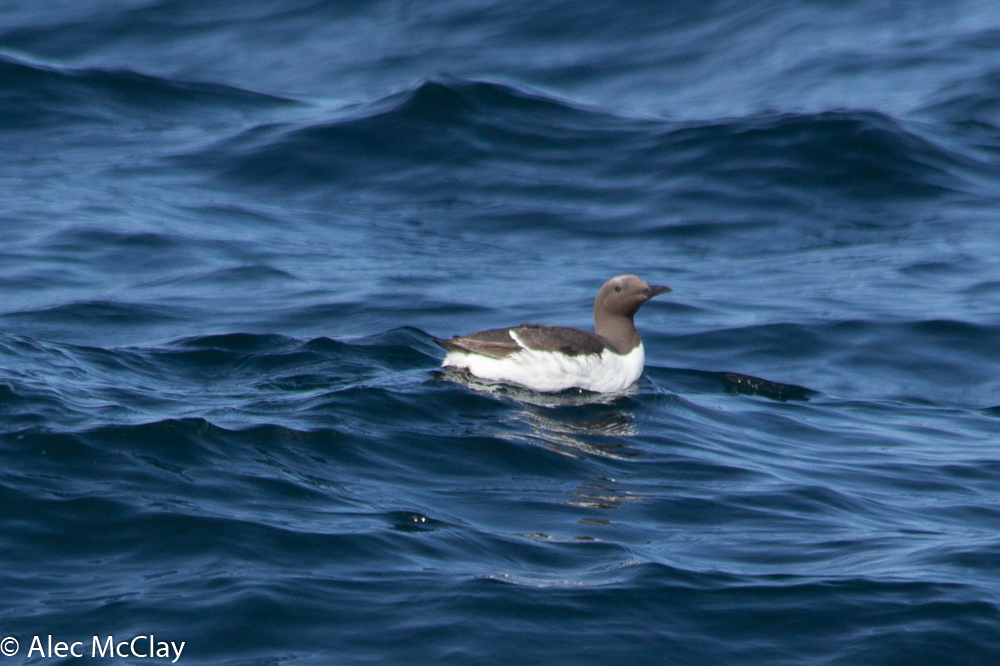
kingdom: Animalia
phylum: Chordata
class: Aves
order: Charadriiformes
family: Alcidae
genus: Uria
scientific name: Uria aalge
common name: Common murre
